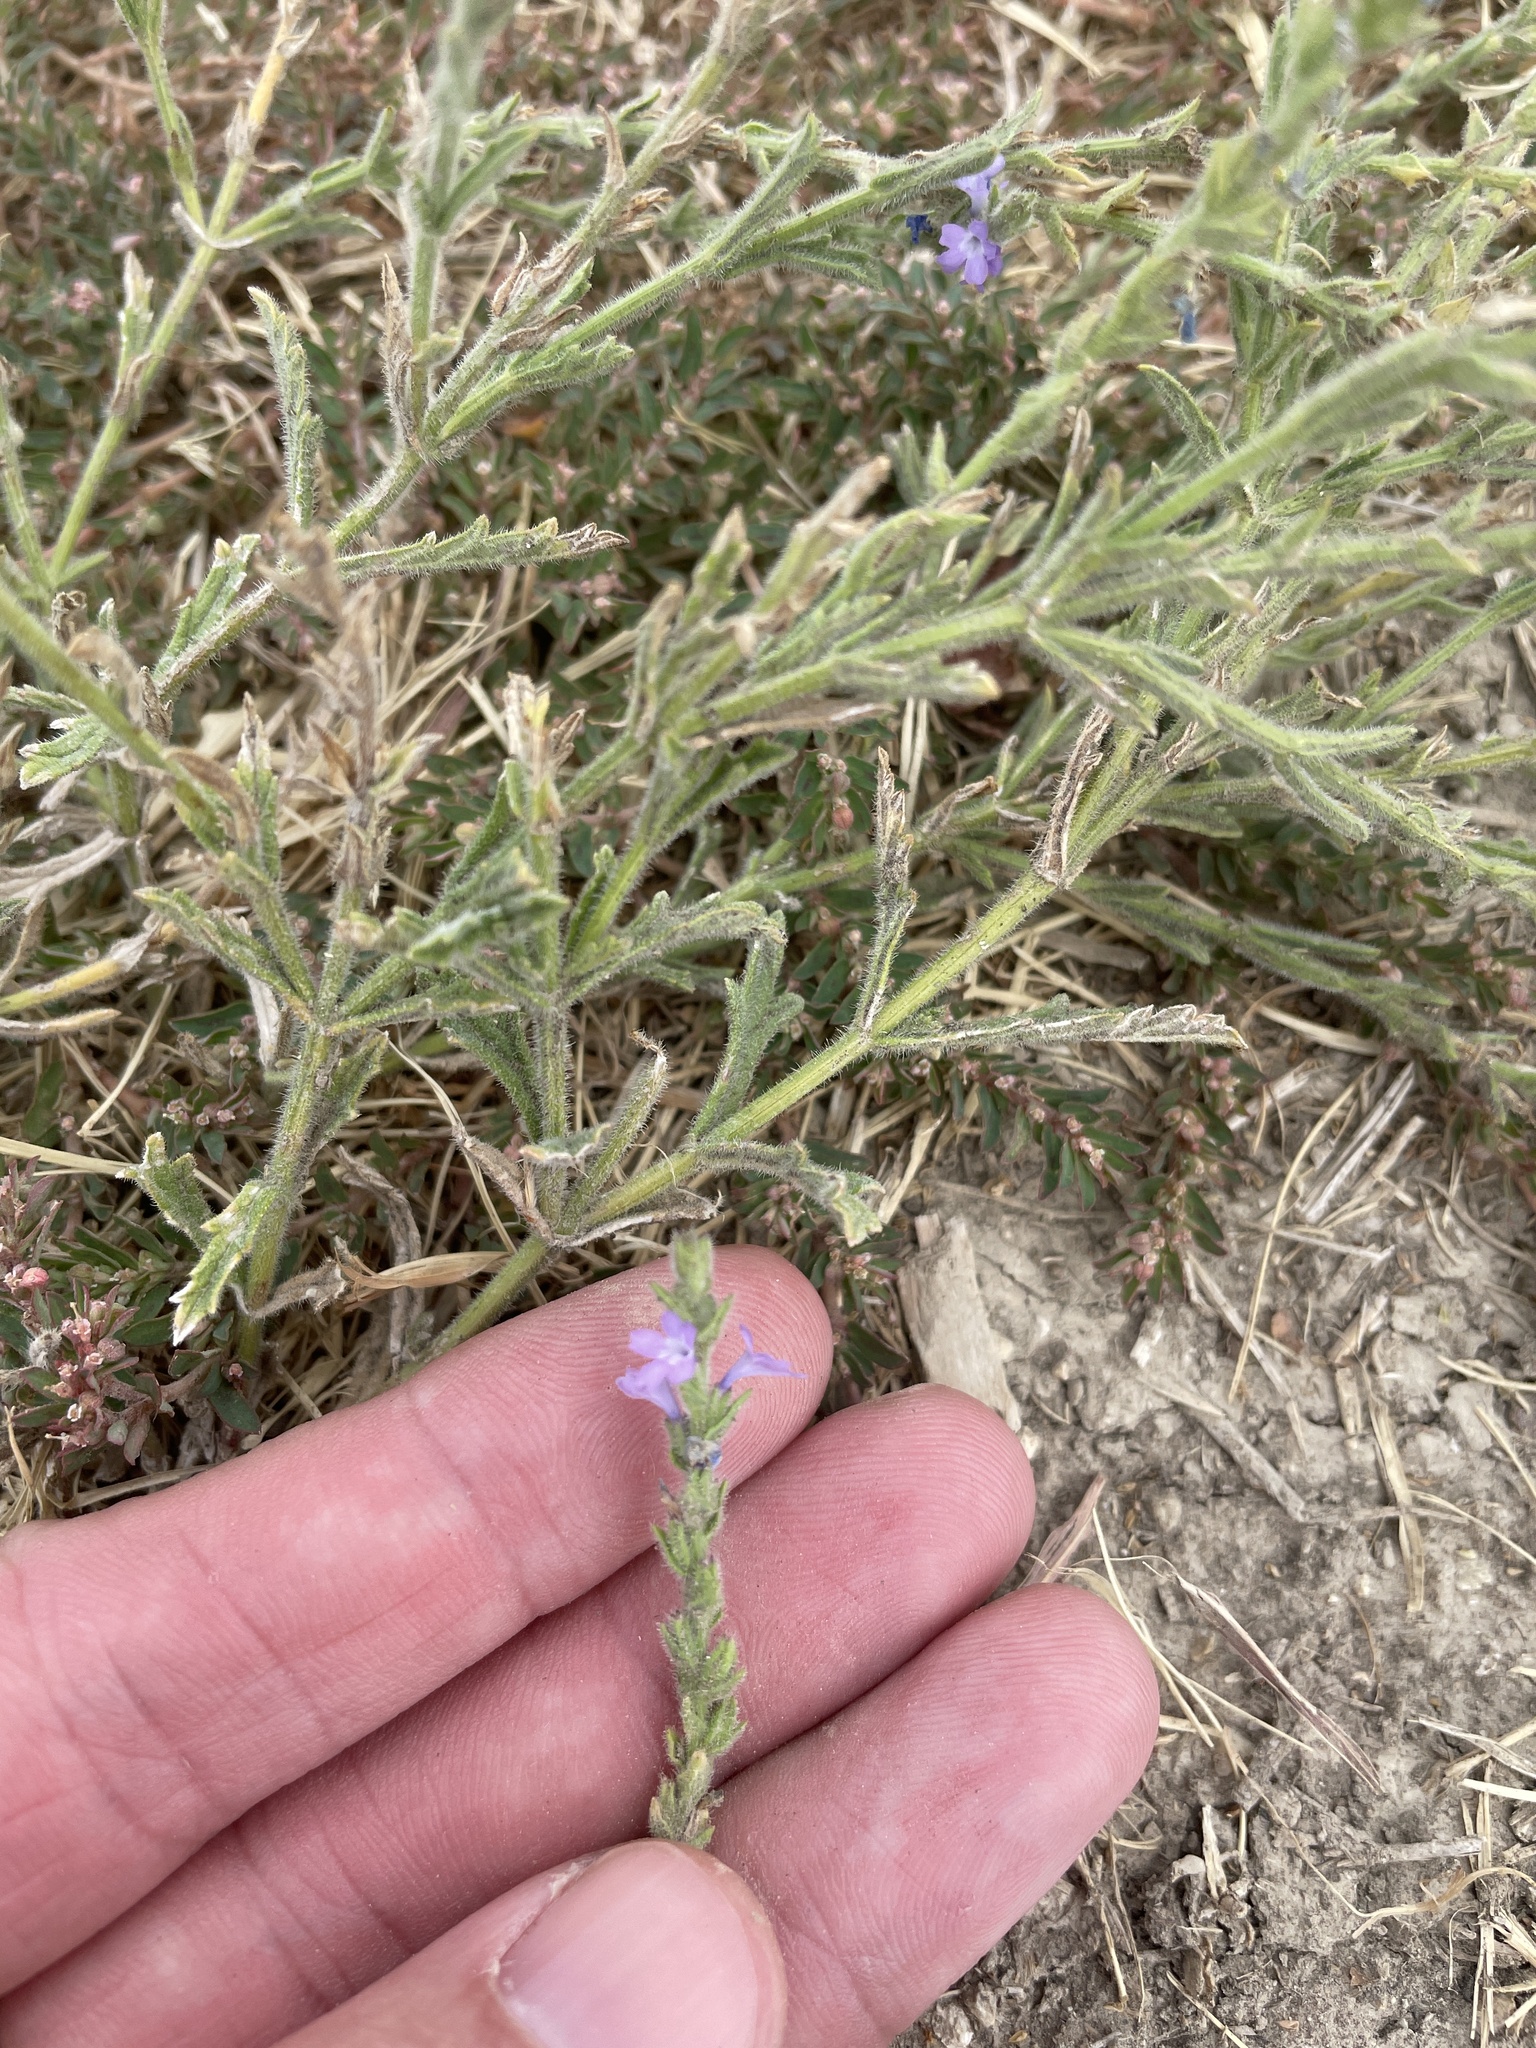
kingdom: Plantae
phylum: Tracheophyta
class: Magnoliopsida
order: Lamiales
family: Verbenaceae
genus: Verbena
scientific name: Verbena canescens
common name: Gray vervain
